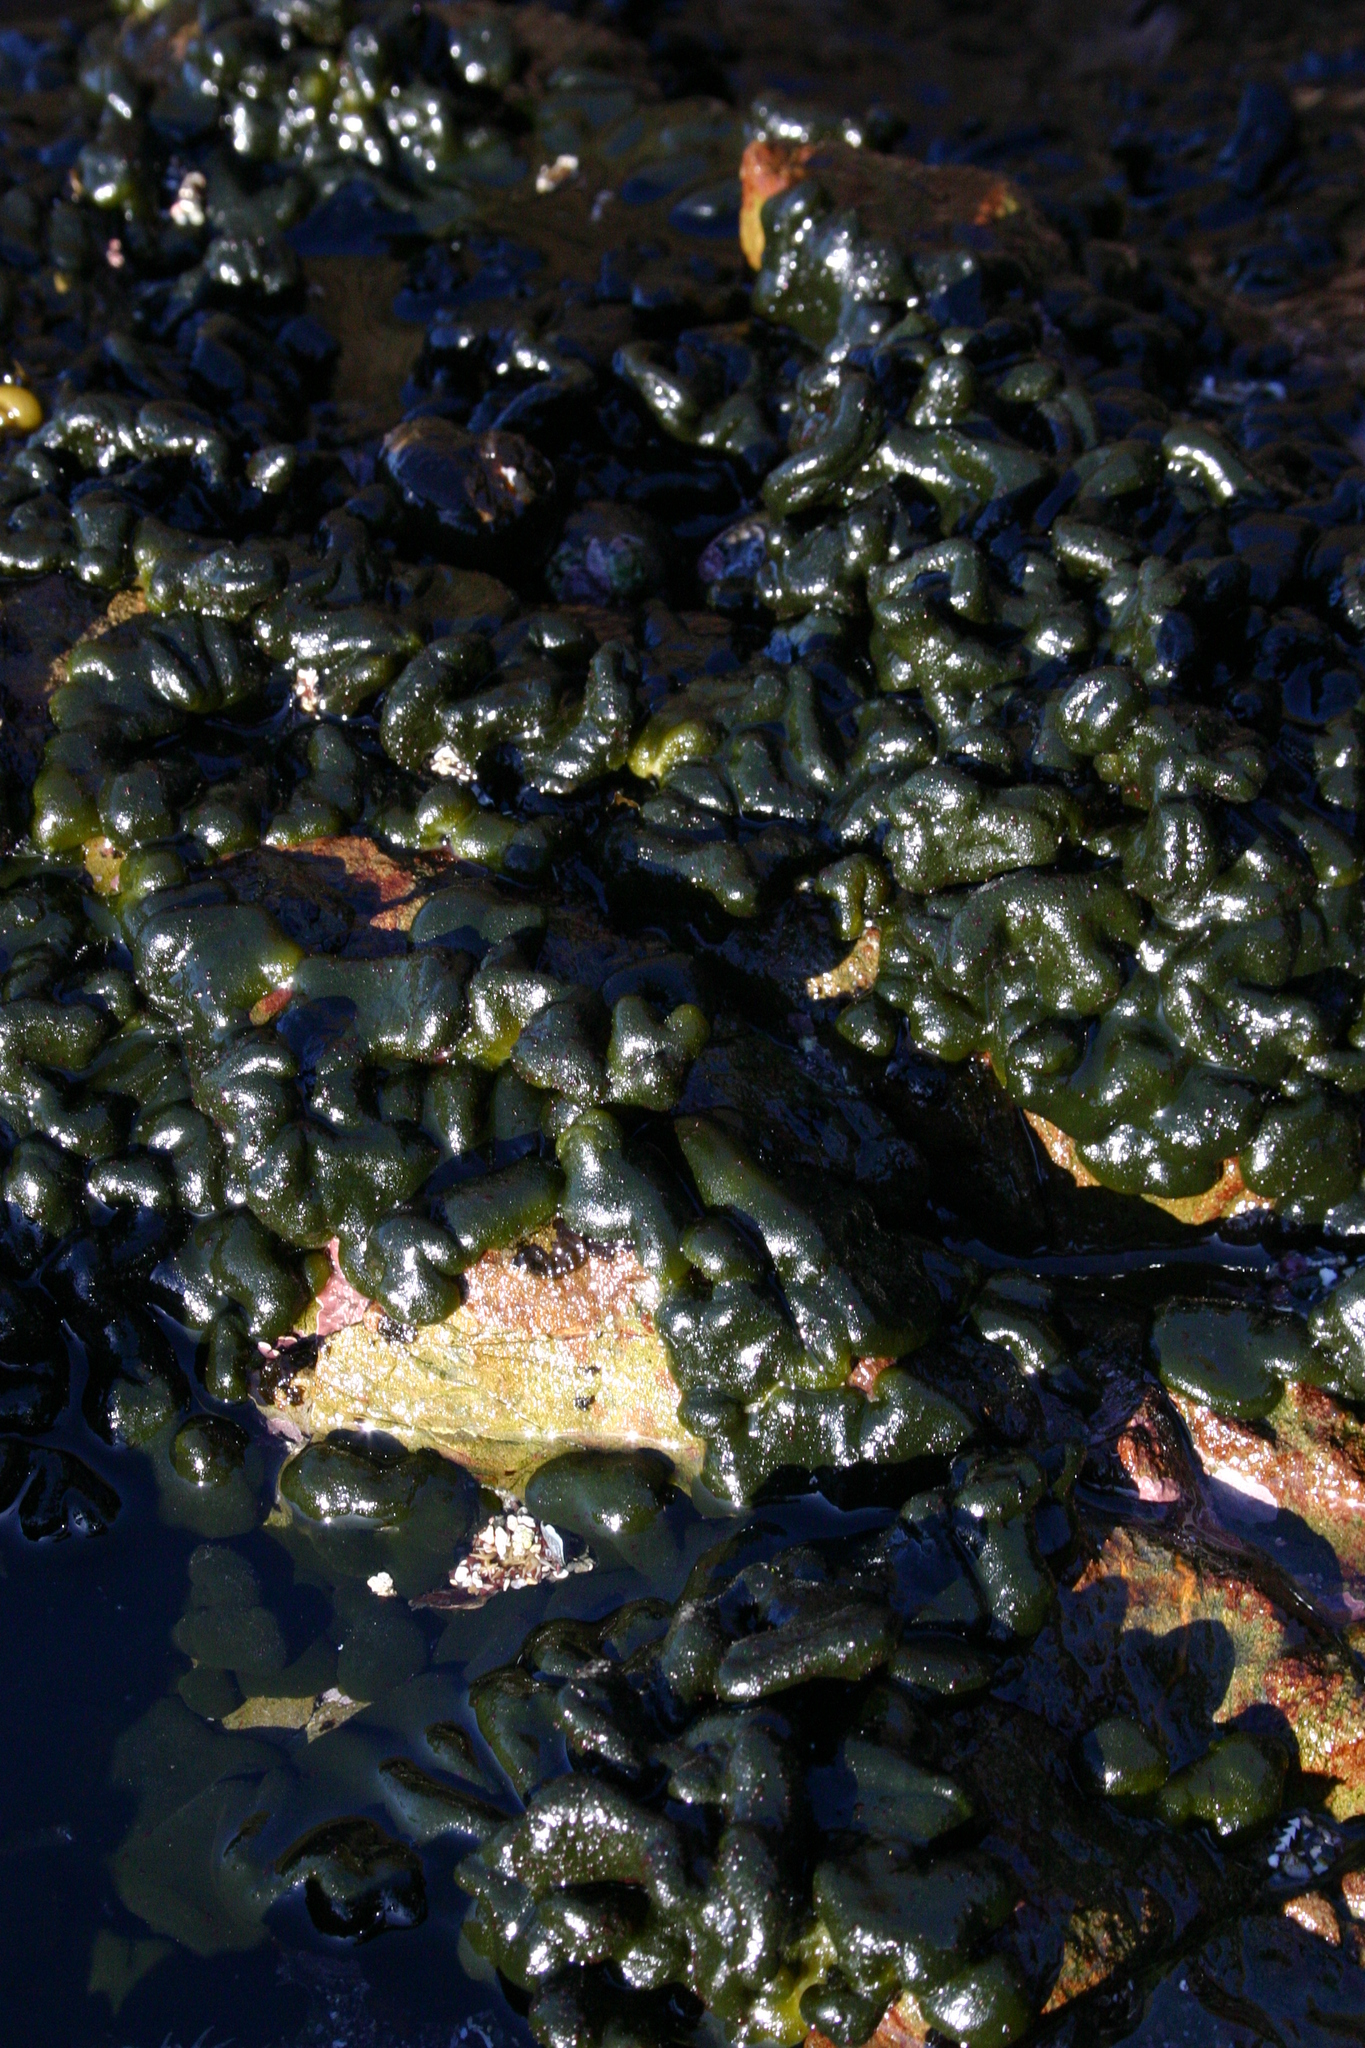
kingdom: Plantae
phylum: Chlorophyta
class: Ulvophyceae
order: Bryopsidales
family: Codiaceae
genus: Codium
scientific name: Codium convolutum
